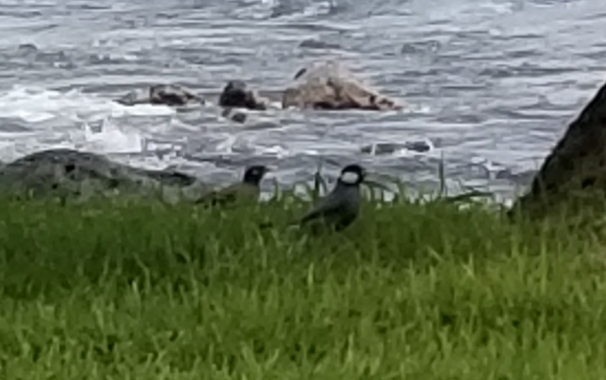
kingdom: Animalia
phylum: Chordata
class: Aves
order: Passeriformes
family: Estrildidae
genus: Lonchura
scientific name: Lonchura oryzivora
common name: Java sparrow
